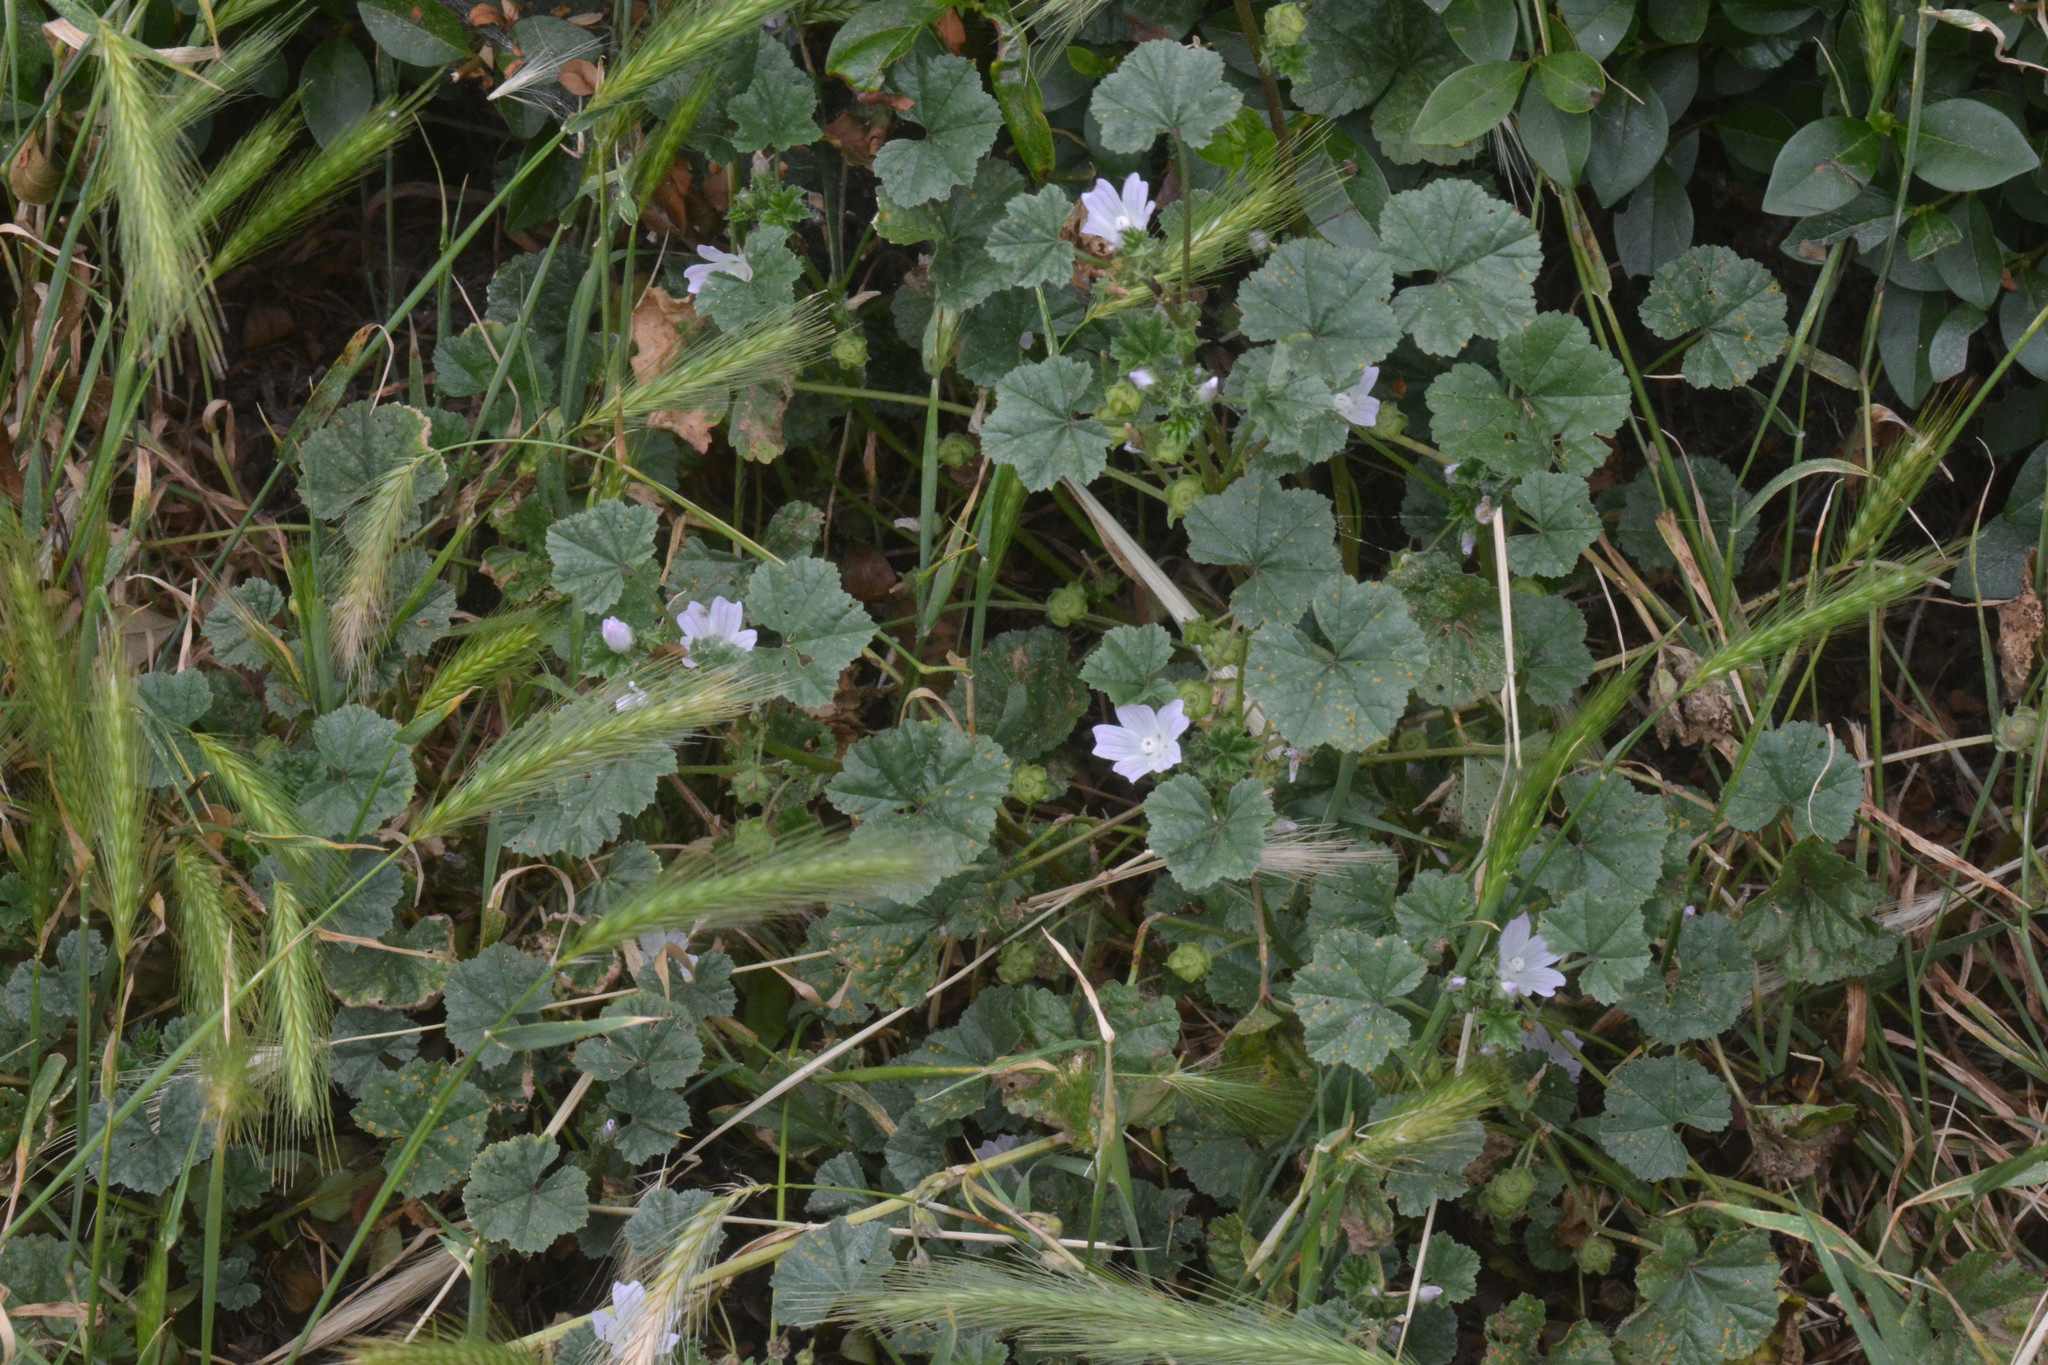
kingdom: Plantae
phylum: Tracheophyta
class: Magnoliopsida
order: Malvales
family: Malvaceae
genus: Malva
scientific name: Malva neglecta
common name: Common mallow
